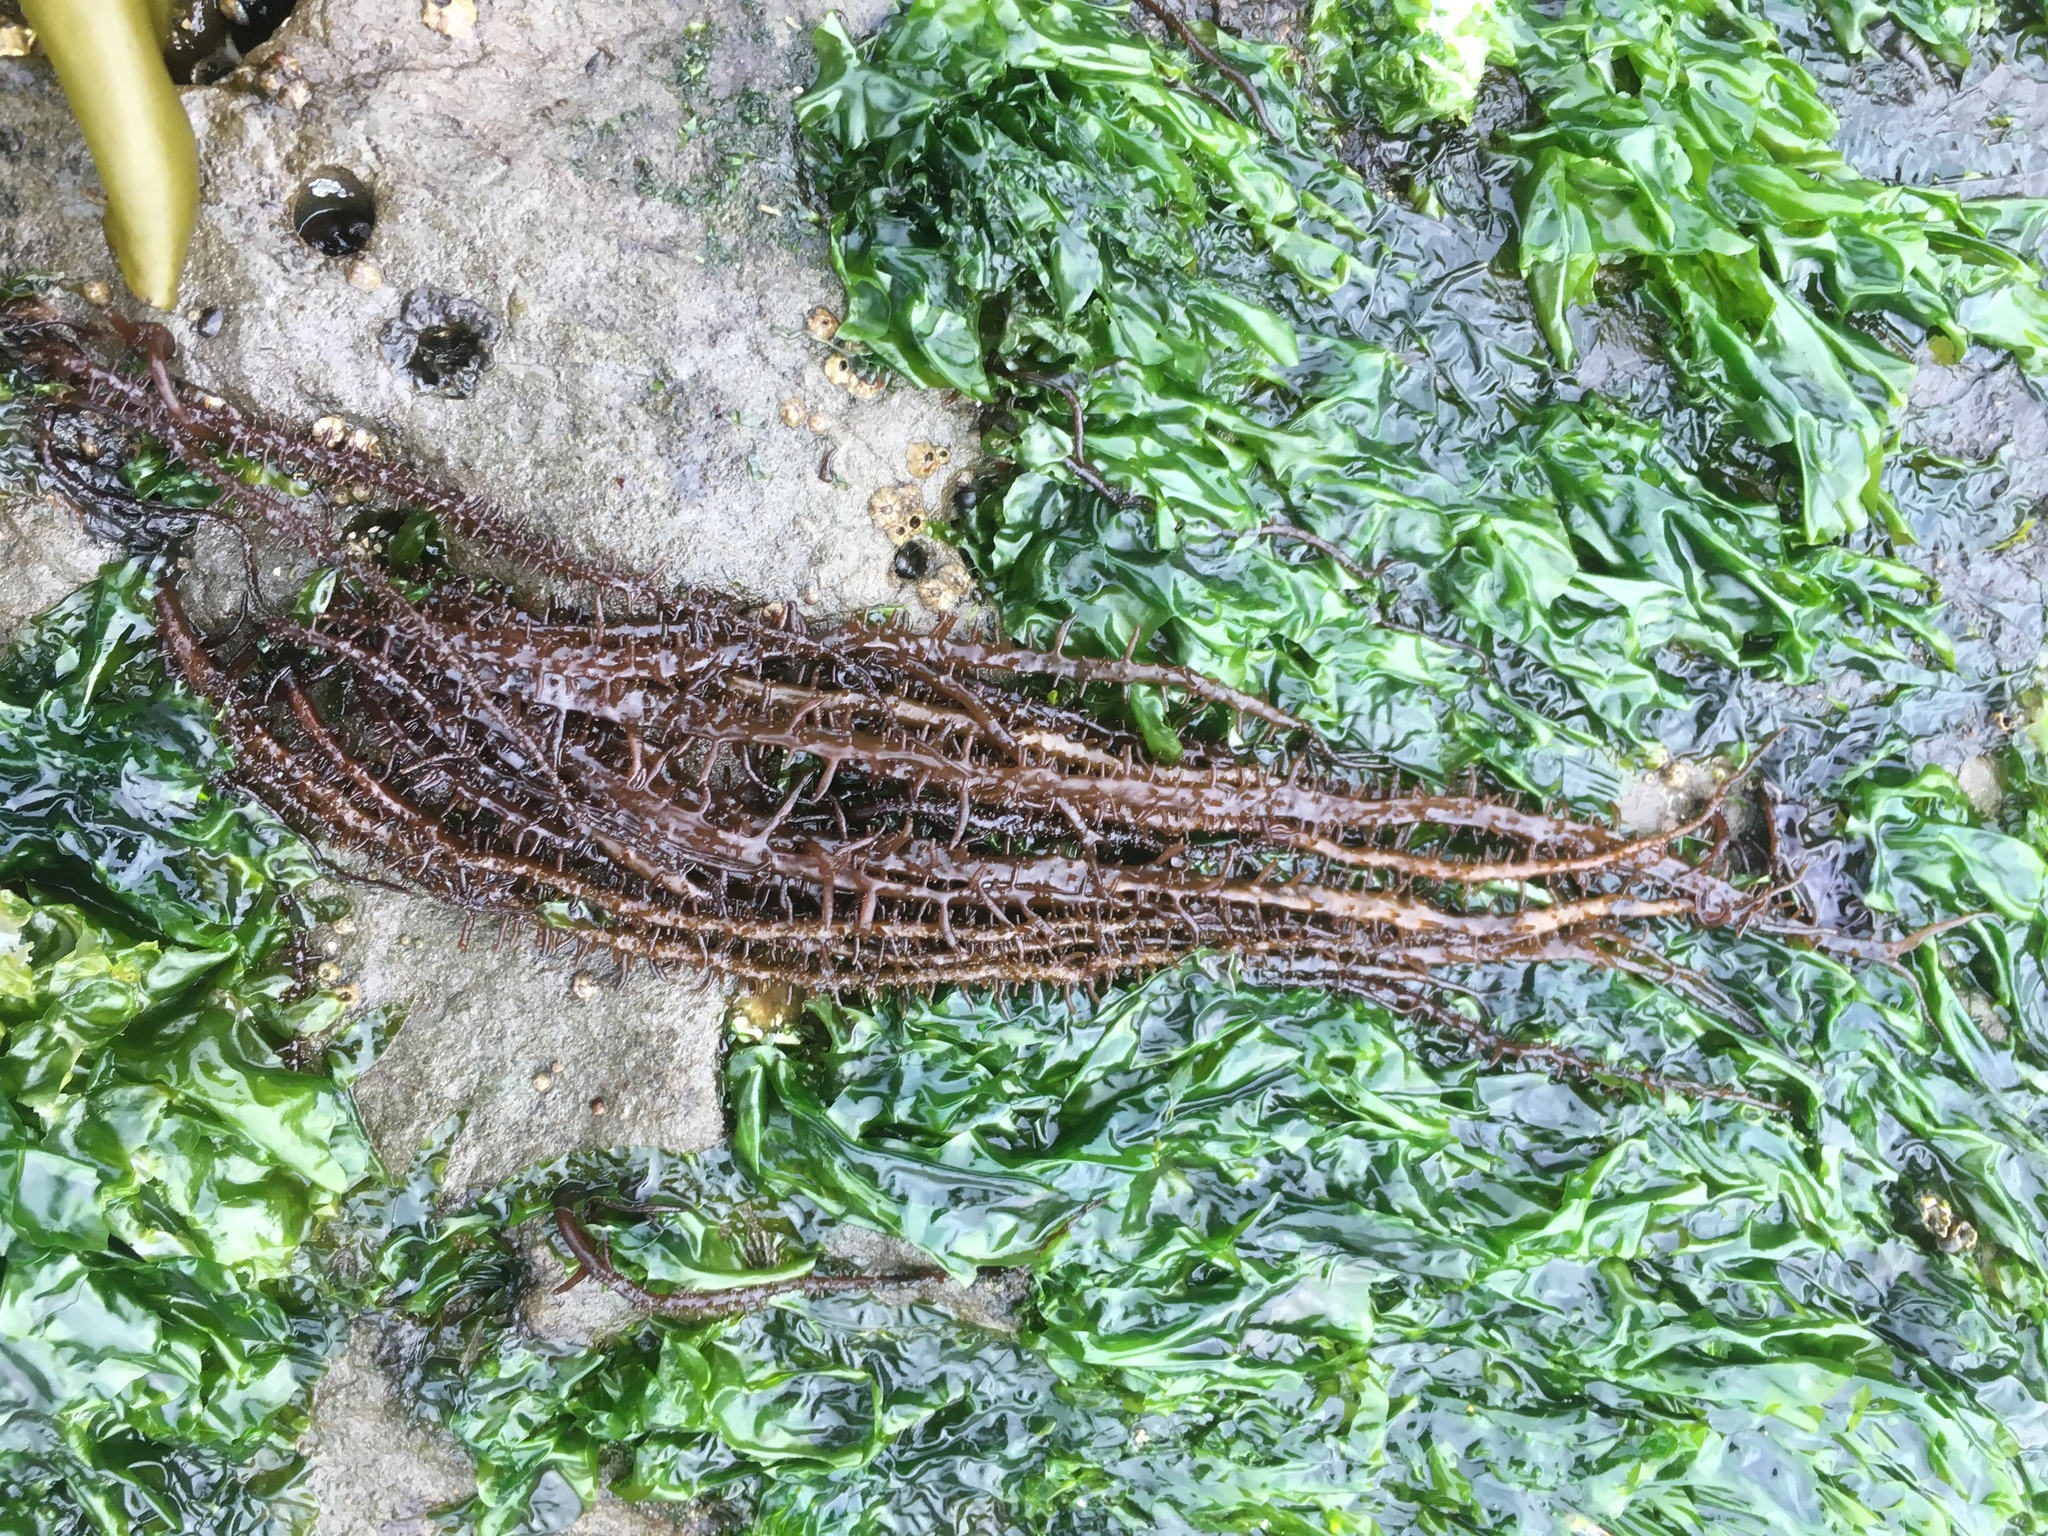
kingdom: Plantae
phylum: Rhodophyta
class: Florideophyceae
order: Nemaliales
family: Liagoraceae
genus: Cumagloia
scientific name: Cumagloia andersonii
